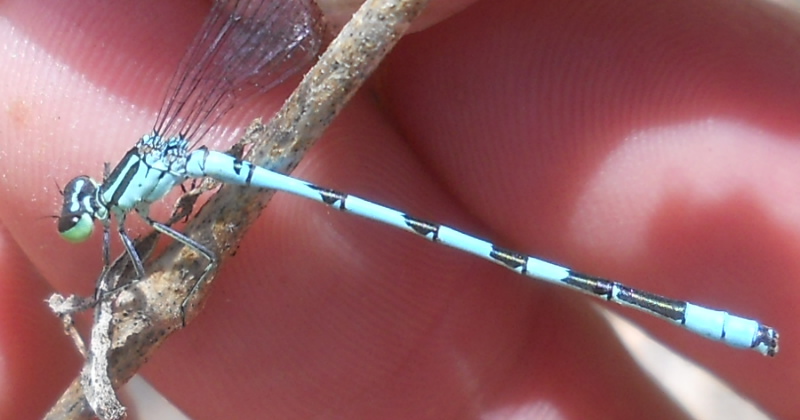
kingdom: Animalia
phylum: Arthropoda
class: Insecta
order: Odonata
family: Coenagrionidae
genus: Coenagrion
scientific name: Coenagrion hastulatum
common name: Spearhead bluet
